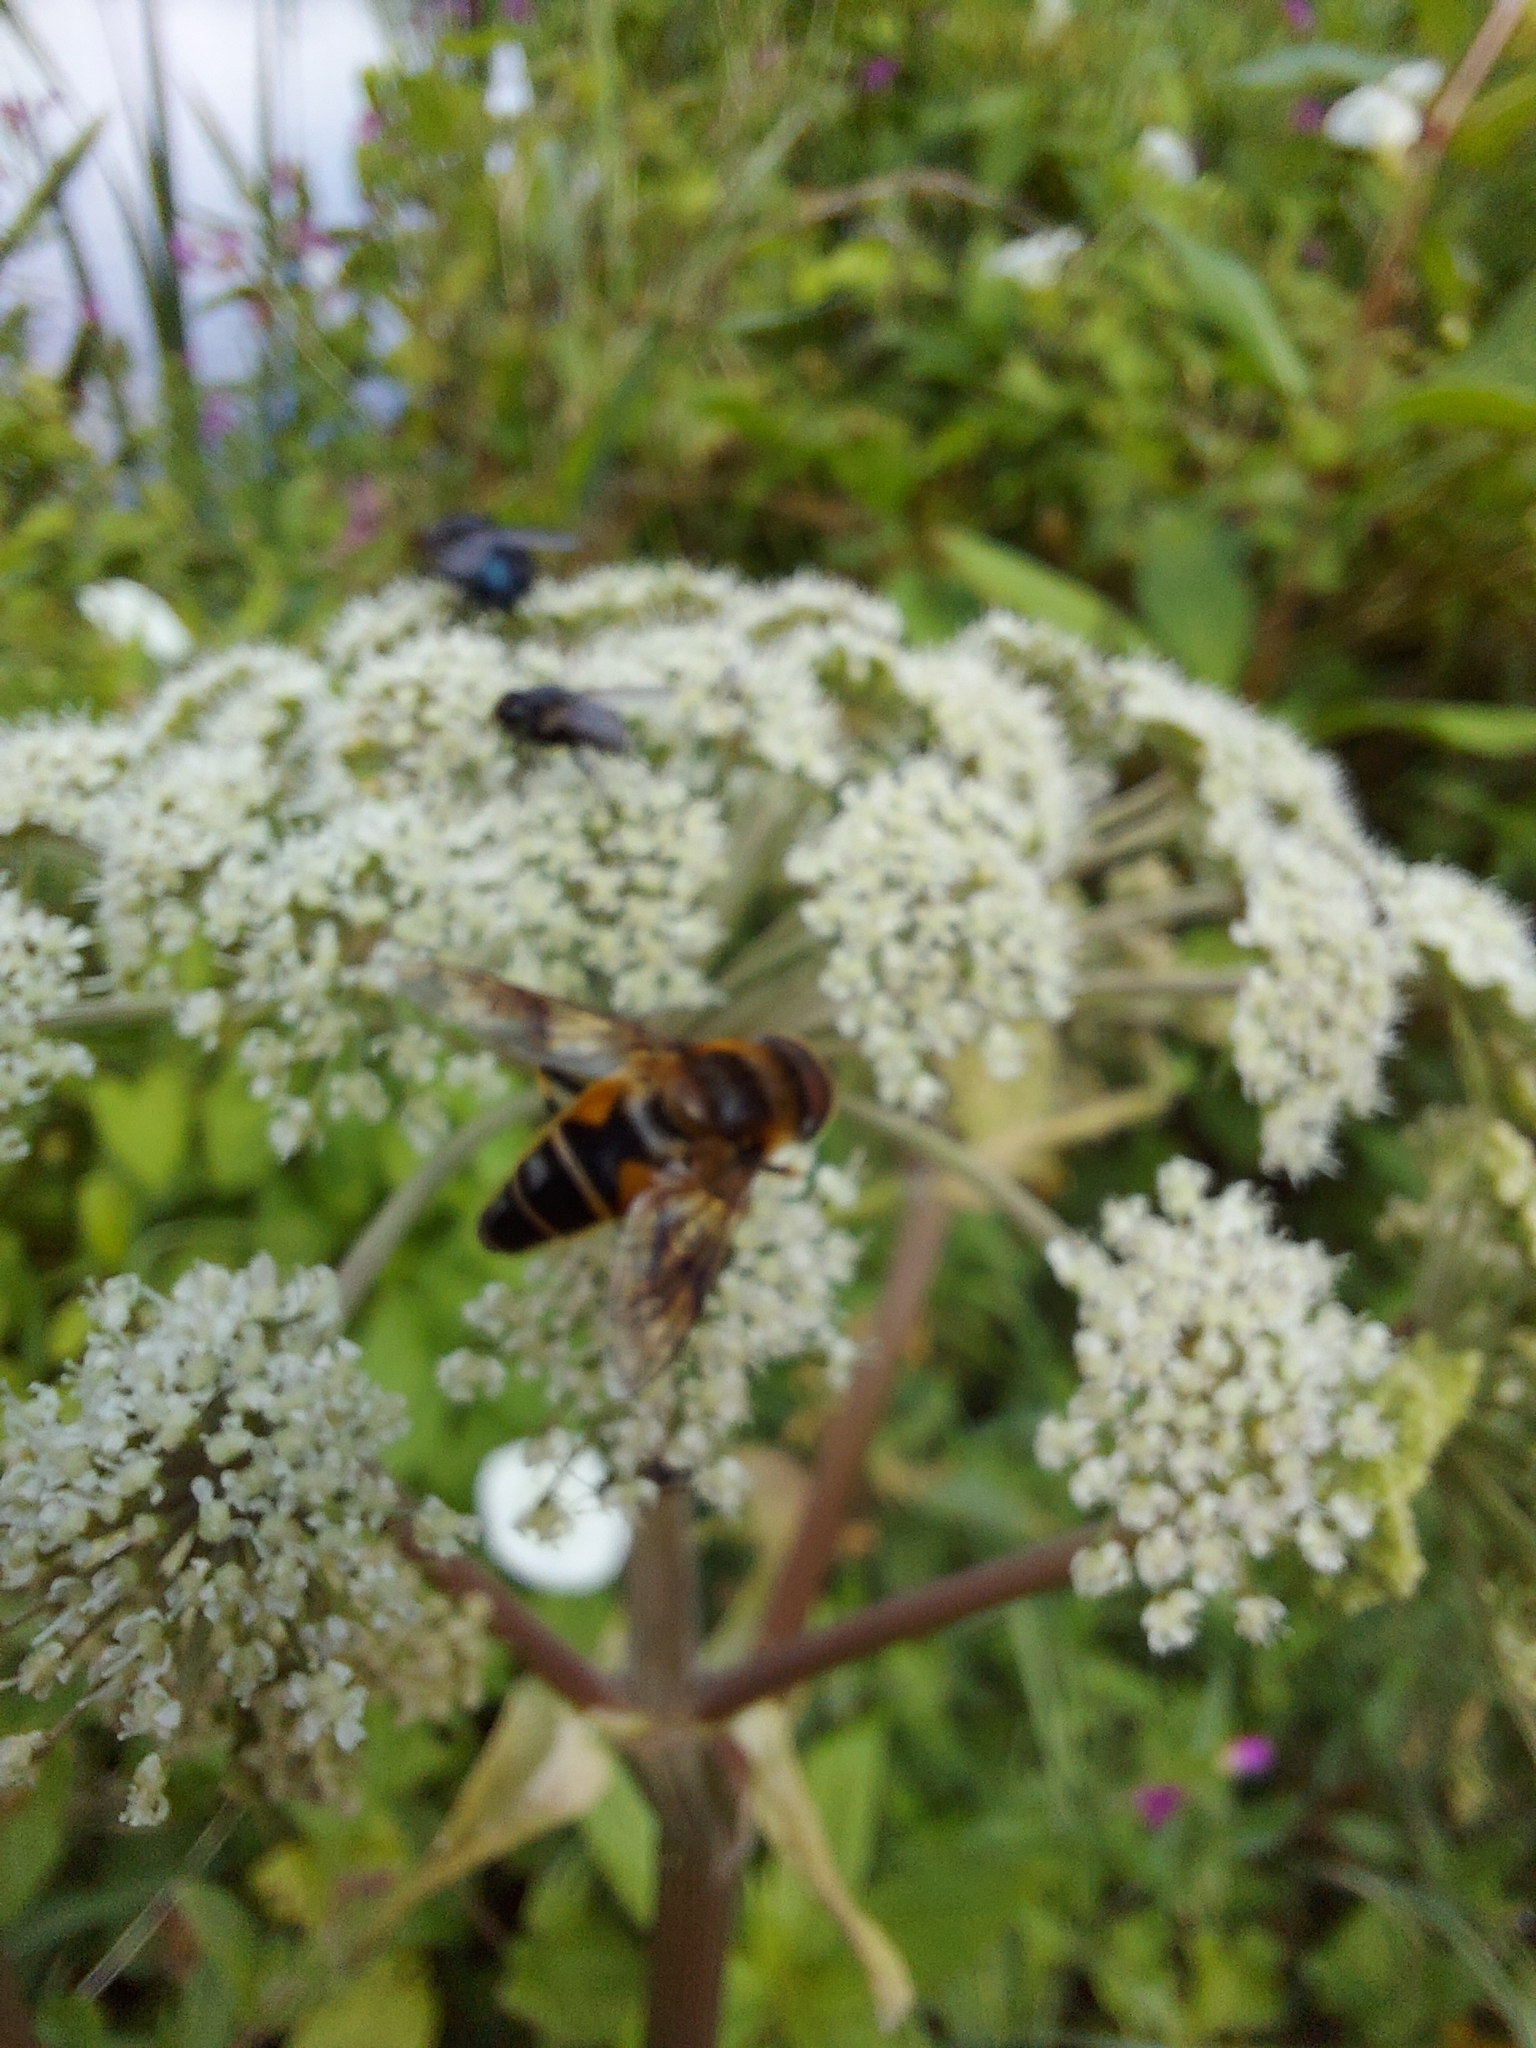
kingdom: Animalia
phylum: Arthropoda
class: Insecta
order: Diptera
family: Syrphidae
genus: Eristalis
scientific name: Eristalis pertinax
